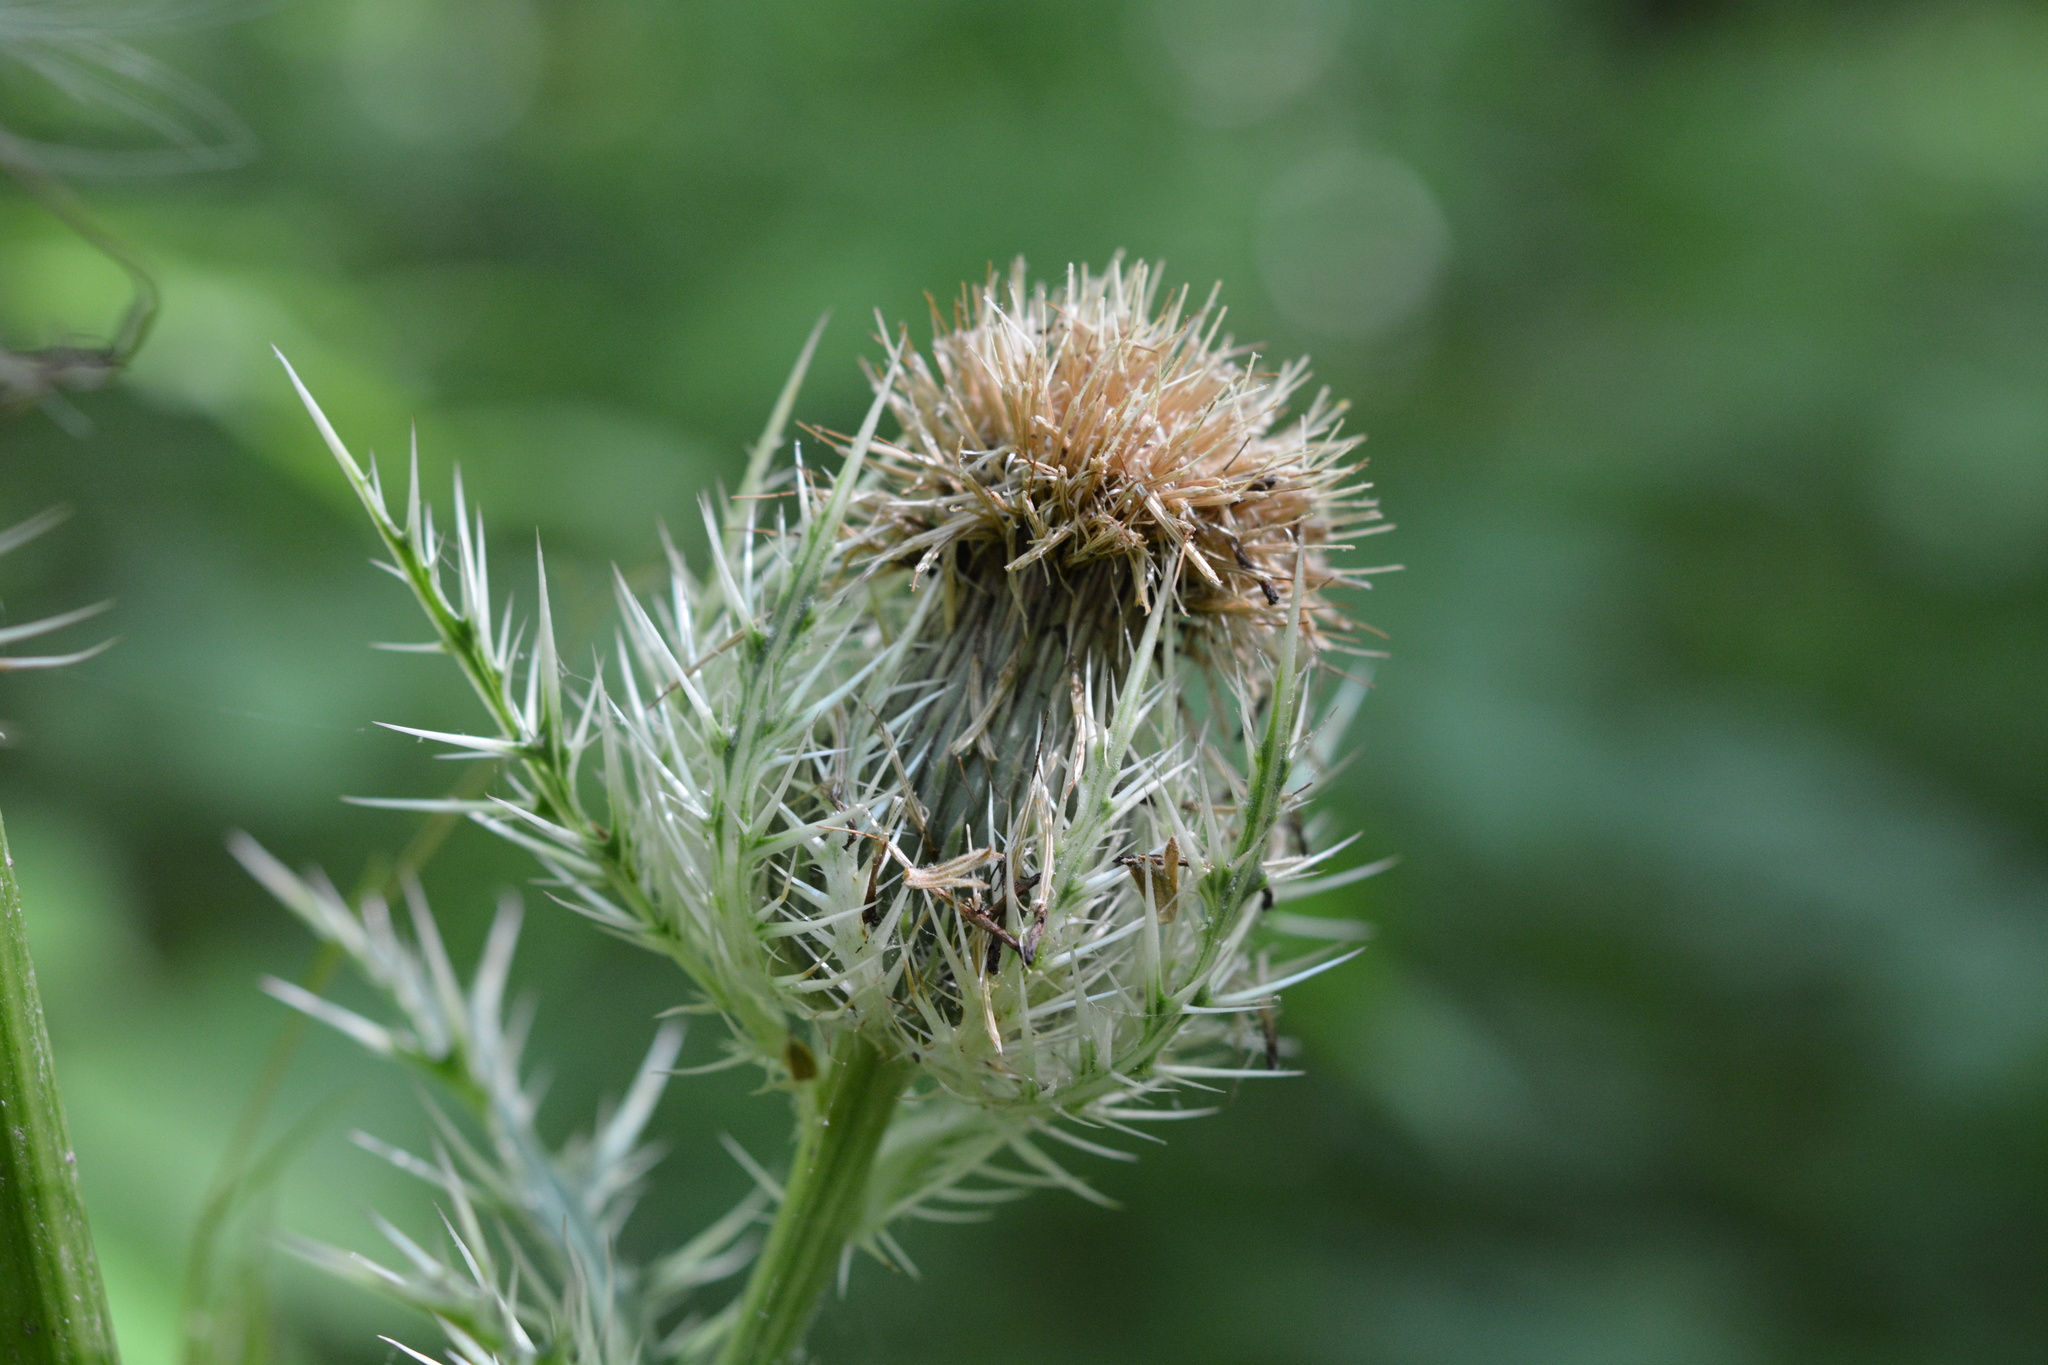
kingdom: Plantae
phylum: Tracheophyta
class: Magnoliopsida
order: Asterales
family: Asteraceae
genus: Cirsium
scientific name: Cirsium horridulum
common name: Bristly thistle
